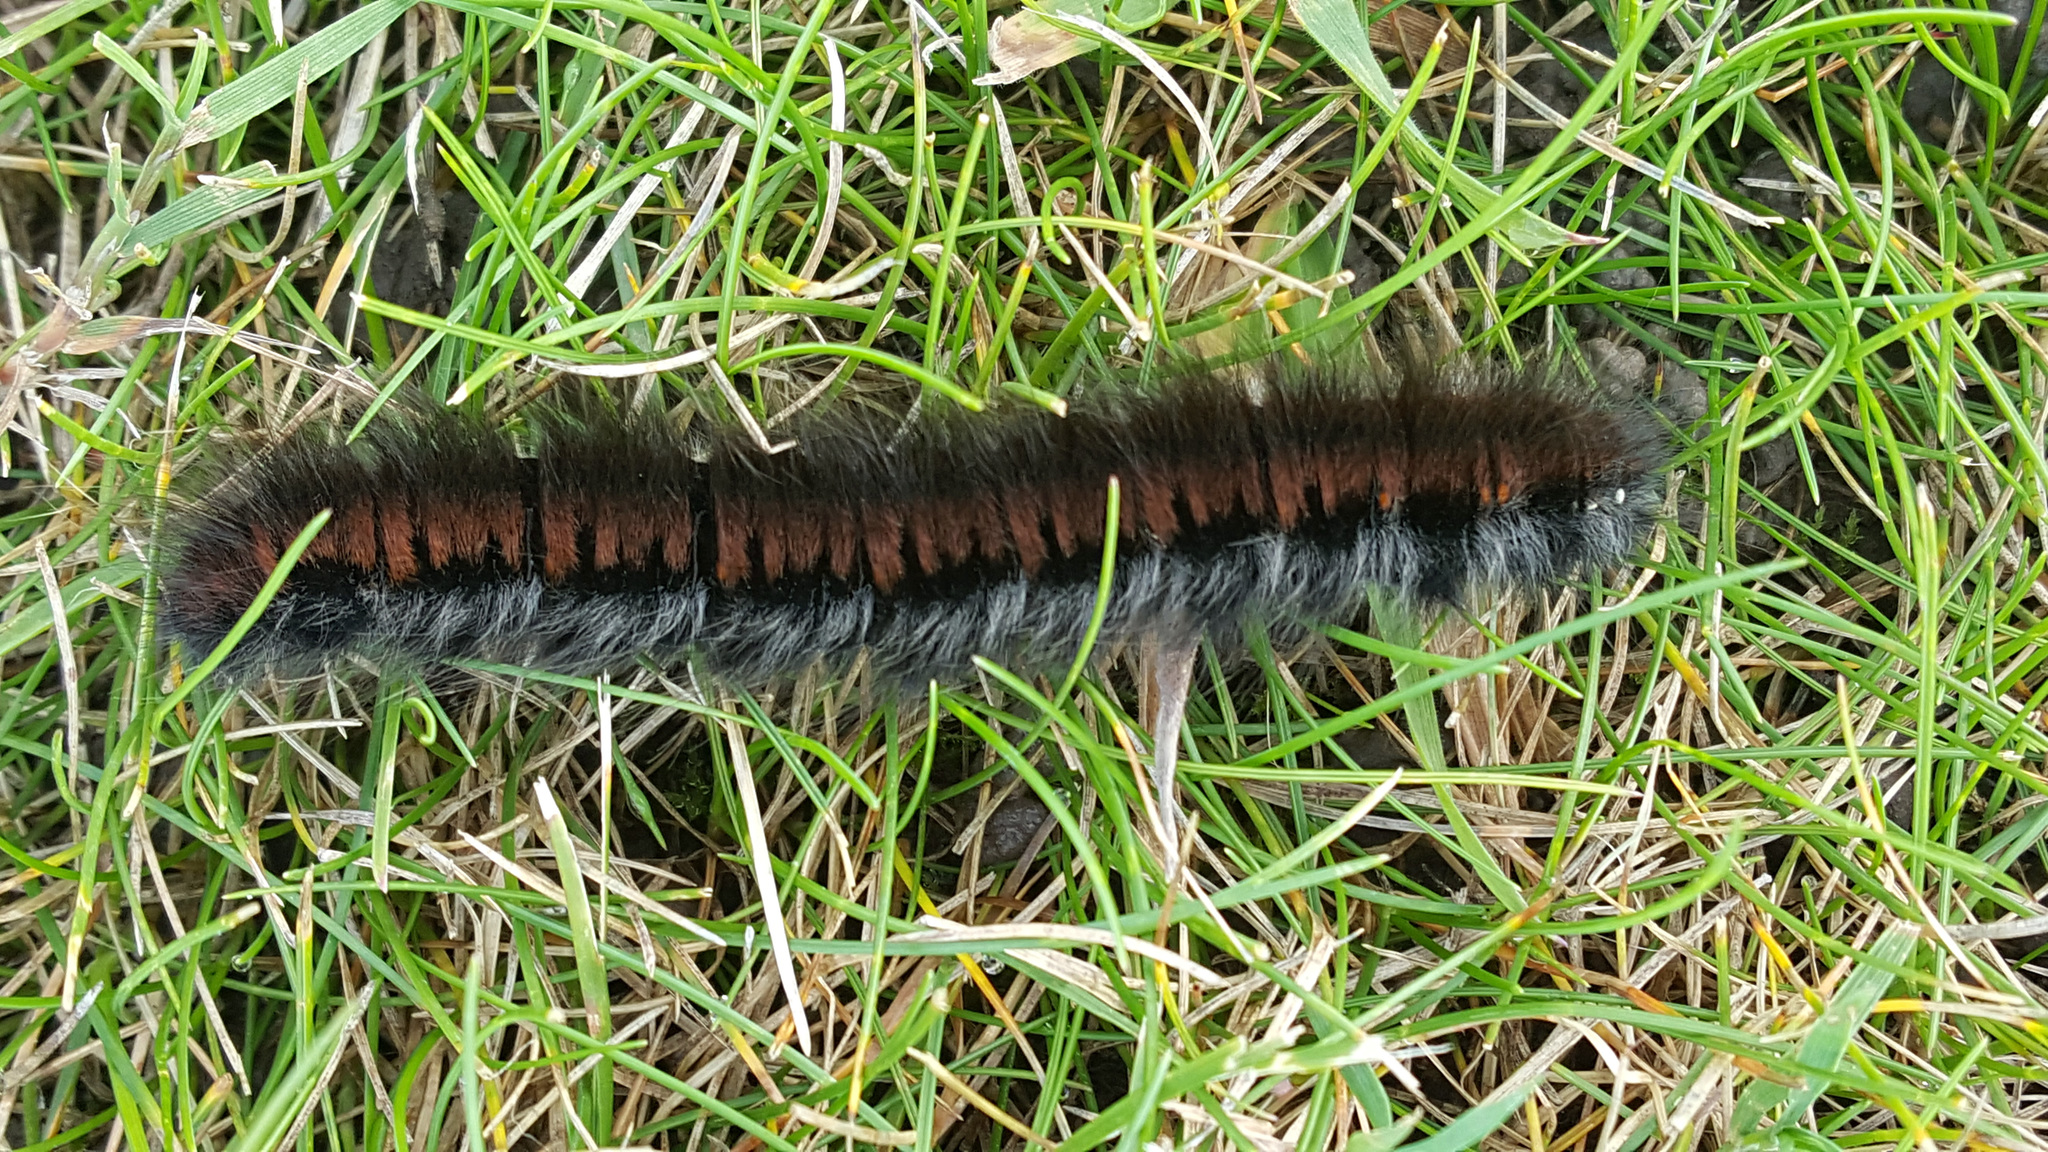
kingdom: Animalia
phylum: Arthropoda
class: Insecta
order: Lepidoptera
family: Lasiocampidae
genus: Macrothylacia
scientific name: Macrothylacia rubi
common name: Fox moth
